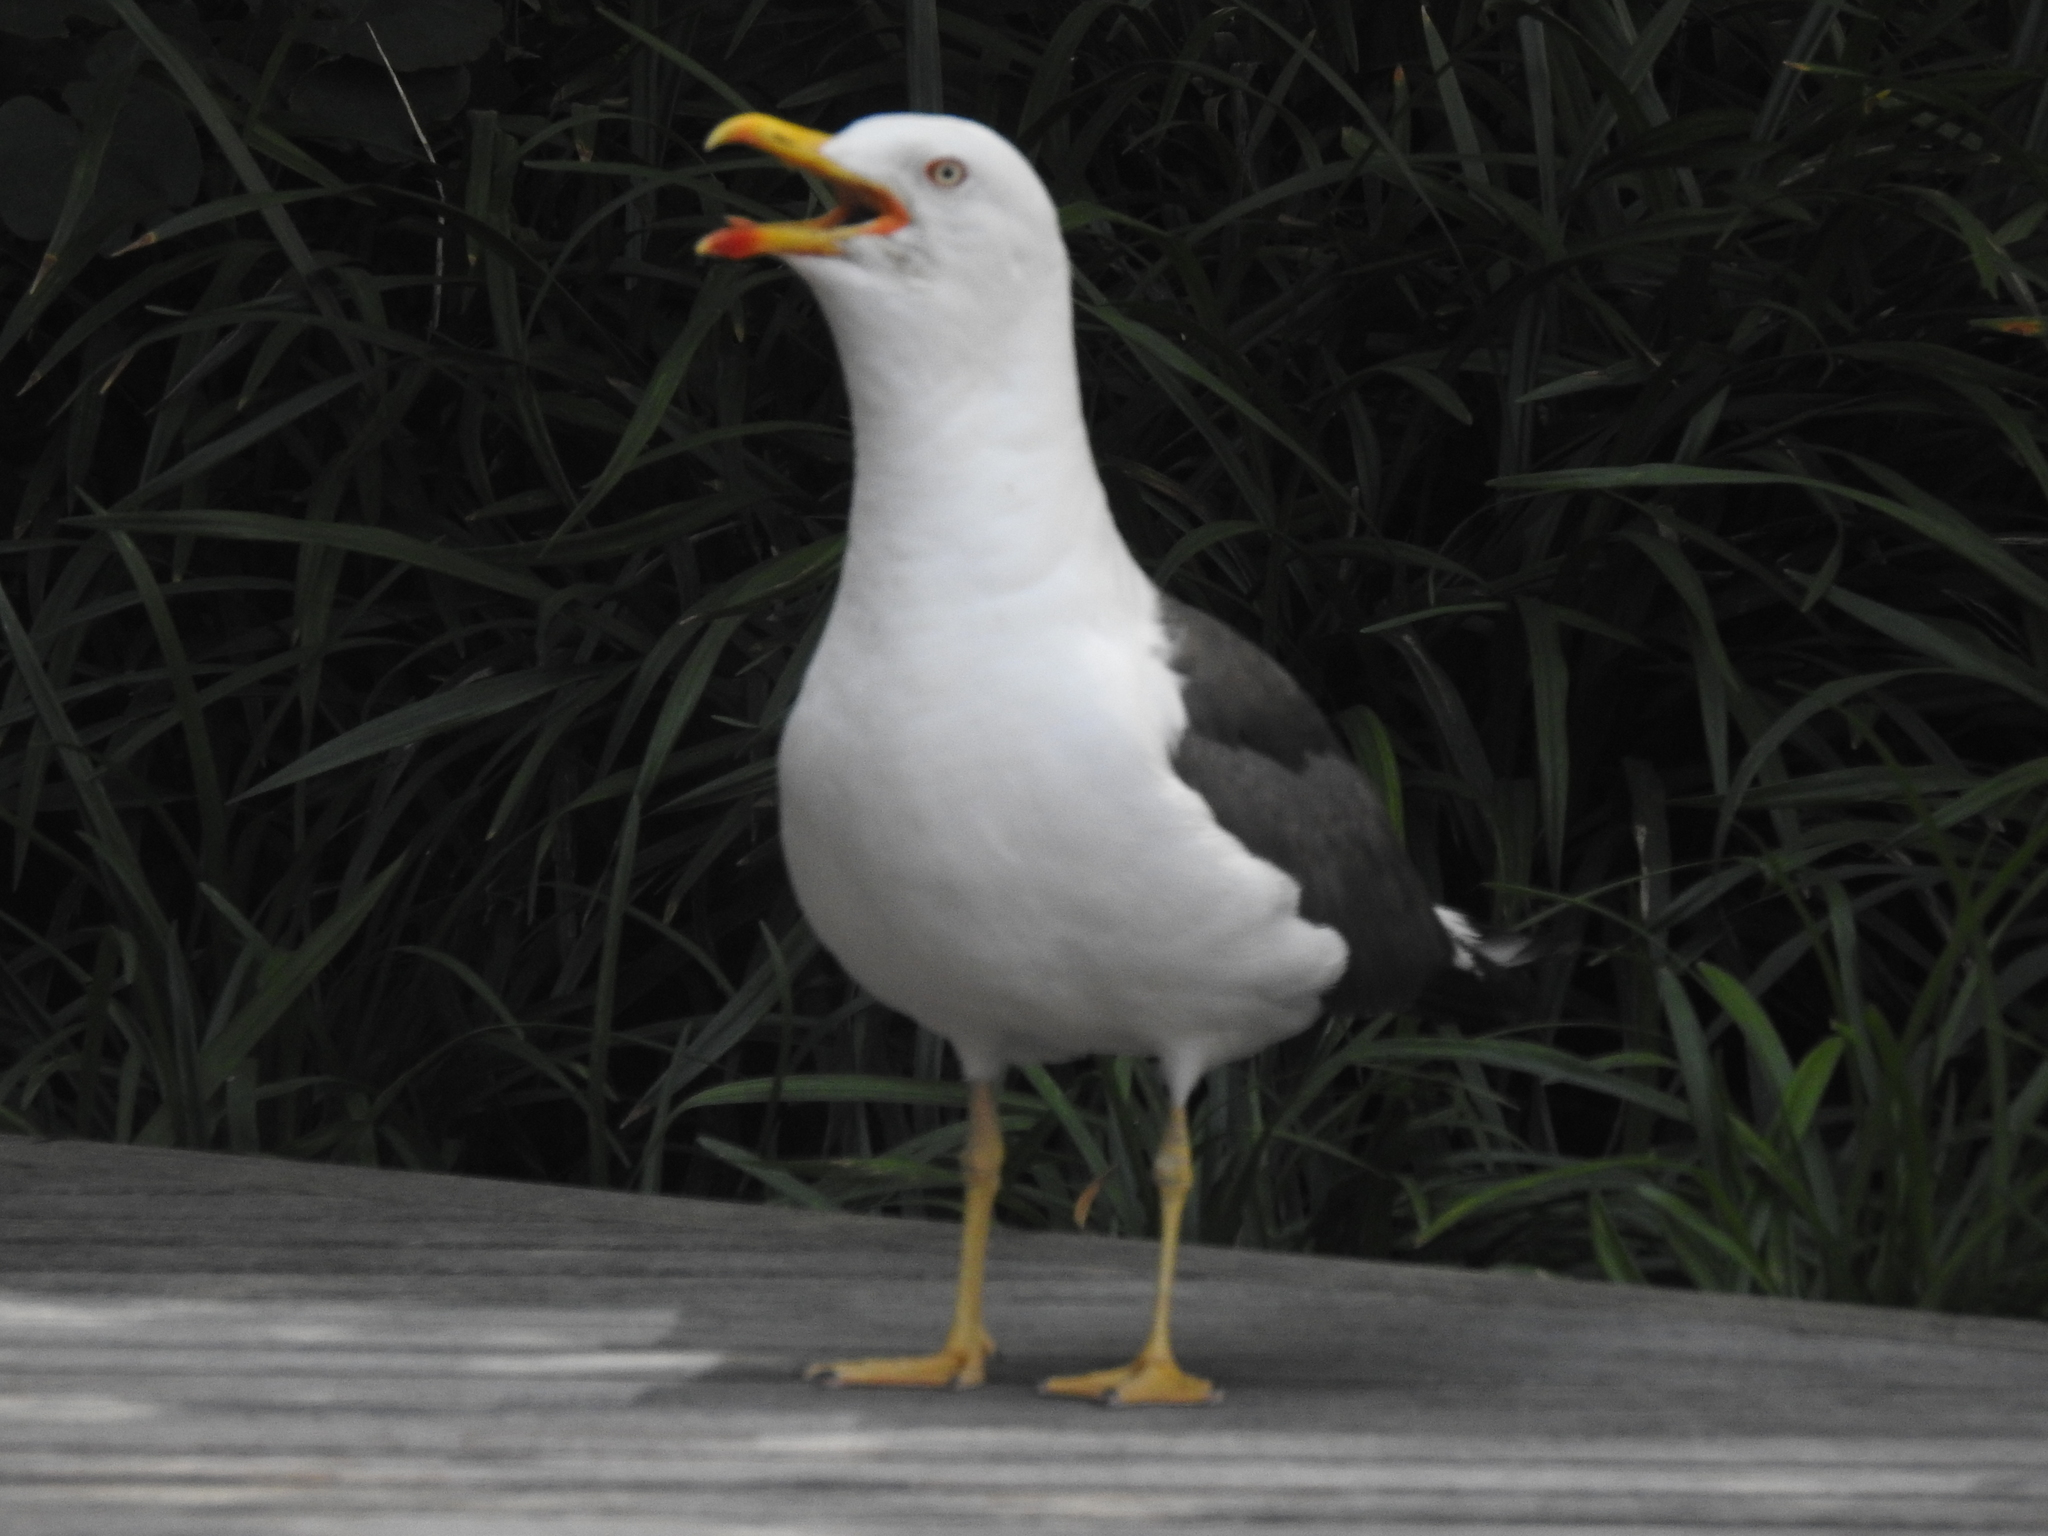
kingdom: Animalia
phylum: Chordata
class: Aves
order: Charadriiformes
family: Laridae
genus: Larus
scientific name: Larus fuscus
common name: Lesser black-backed gull
